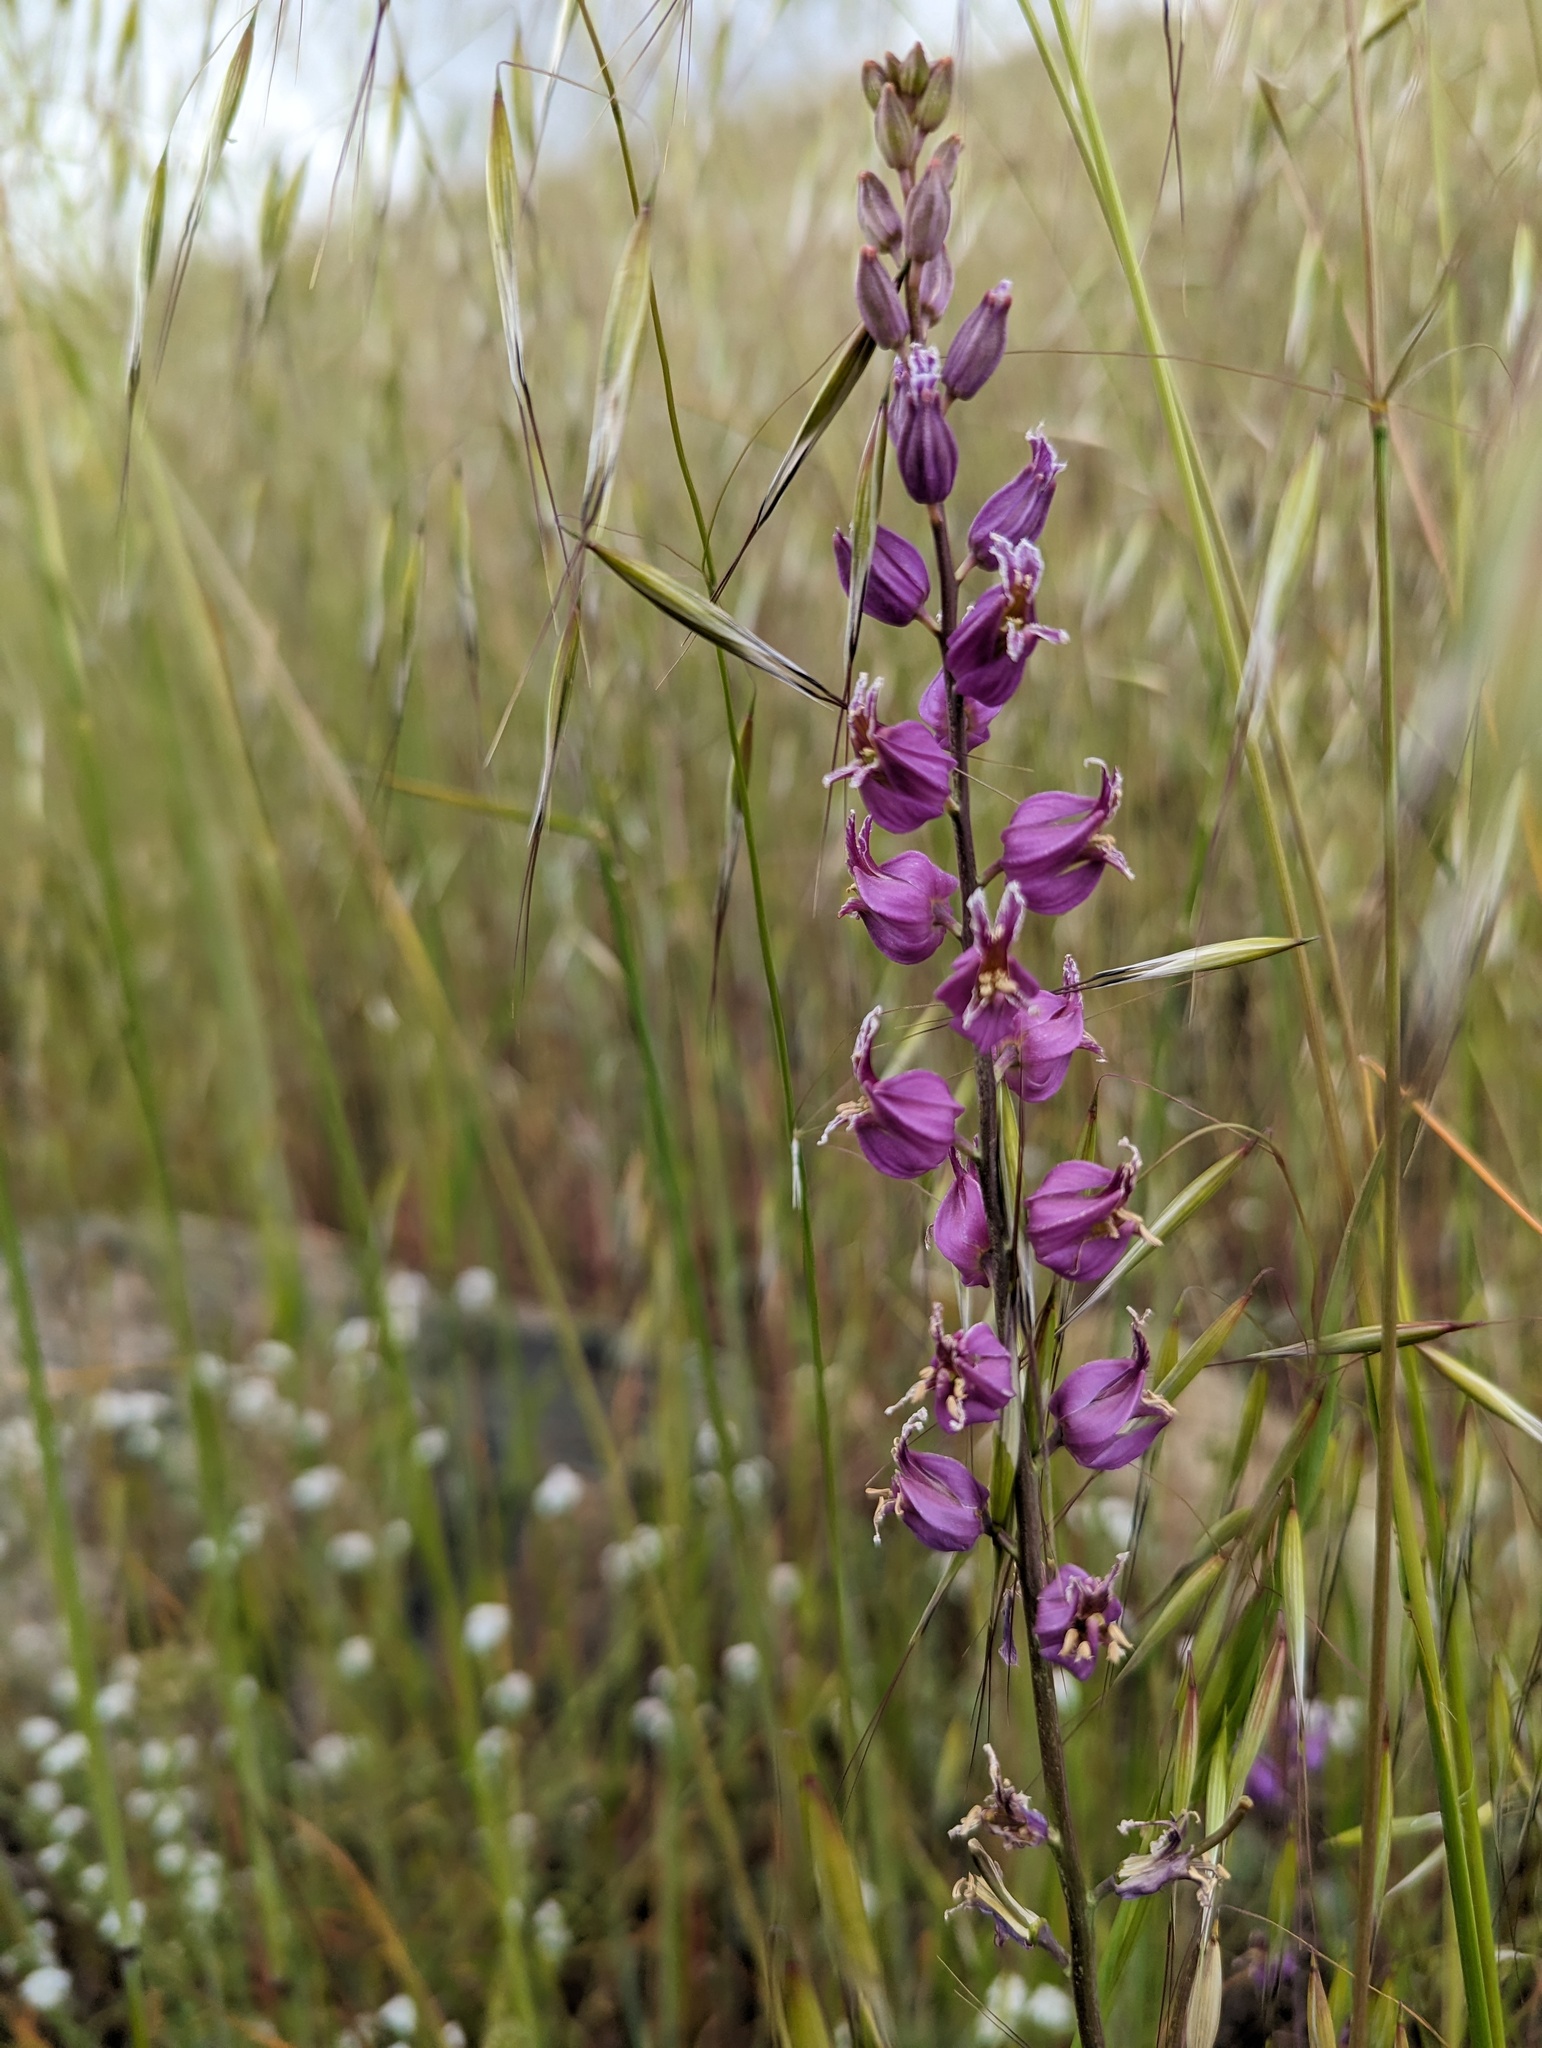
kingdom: Plantae
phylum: Tracheophyta
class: Magnoliopsida
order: Brassicales
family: Brassicaceae
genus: Streptanthus
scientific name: Streptanthus glandulosus
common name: Jewel-flower
